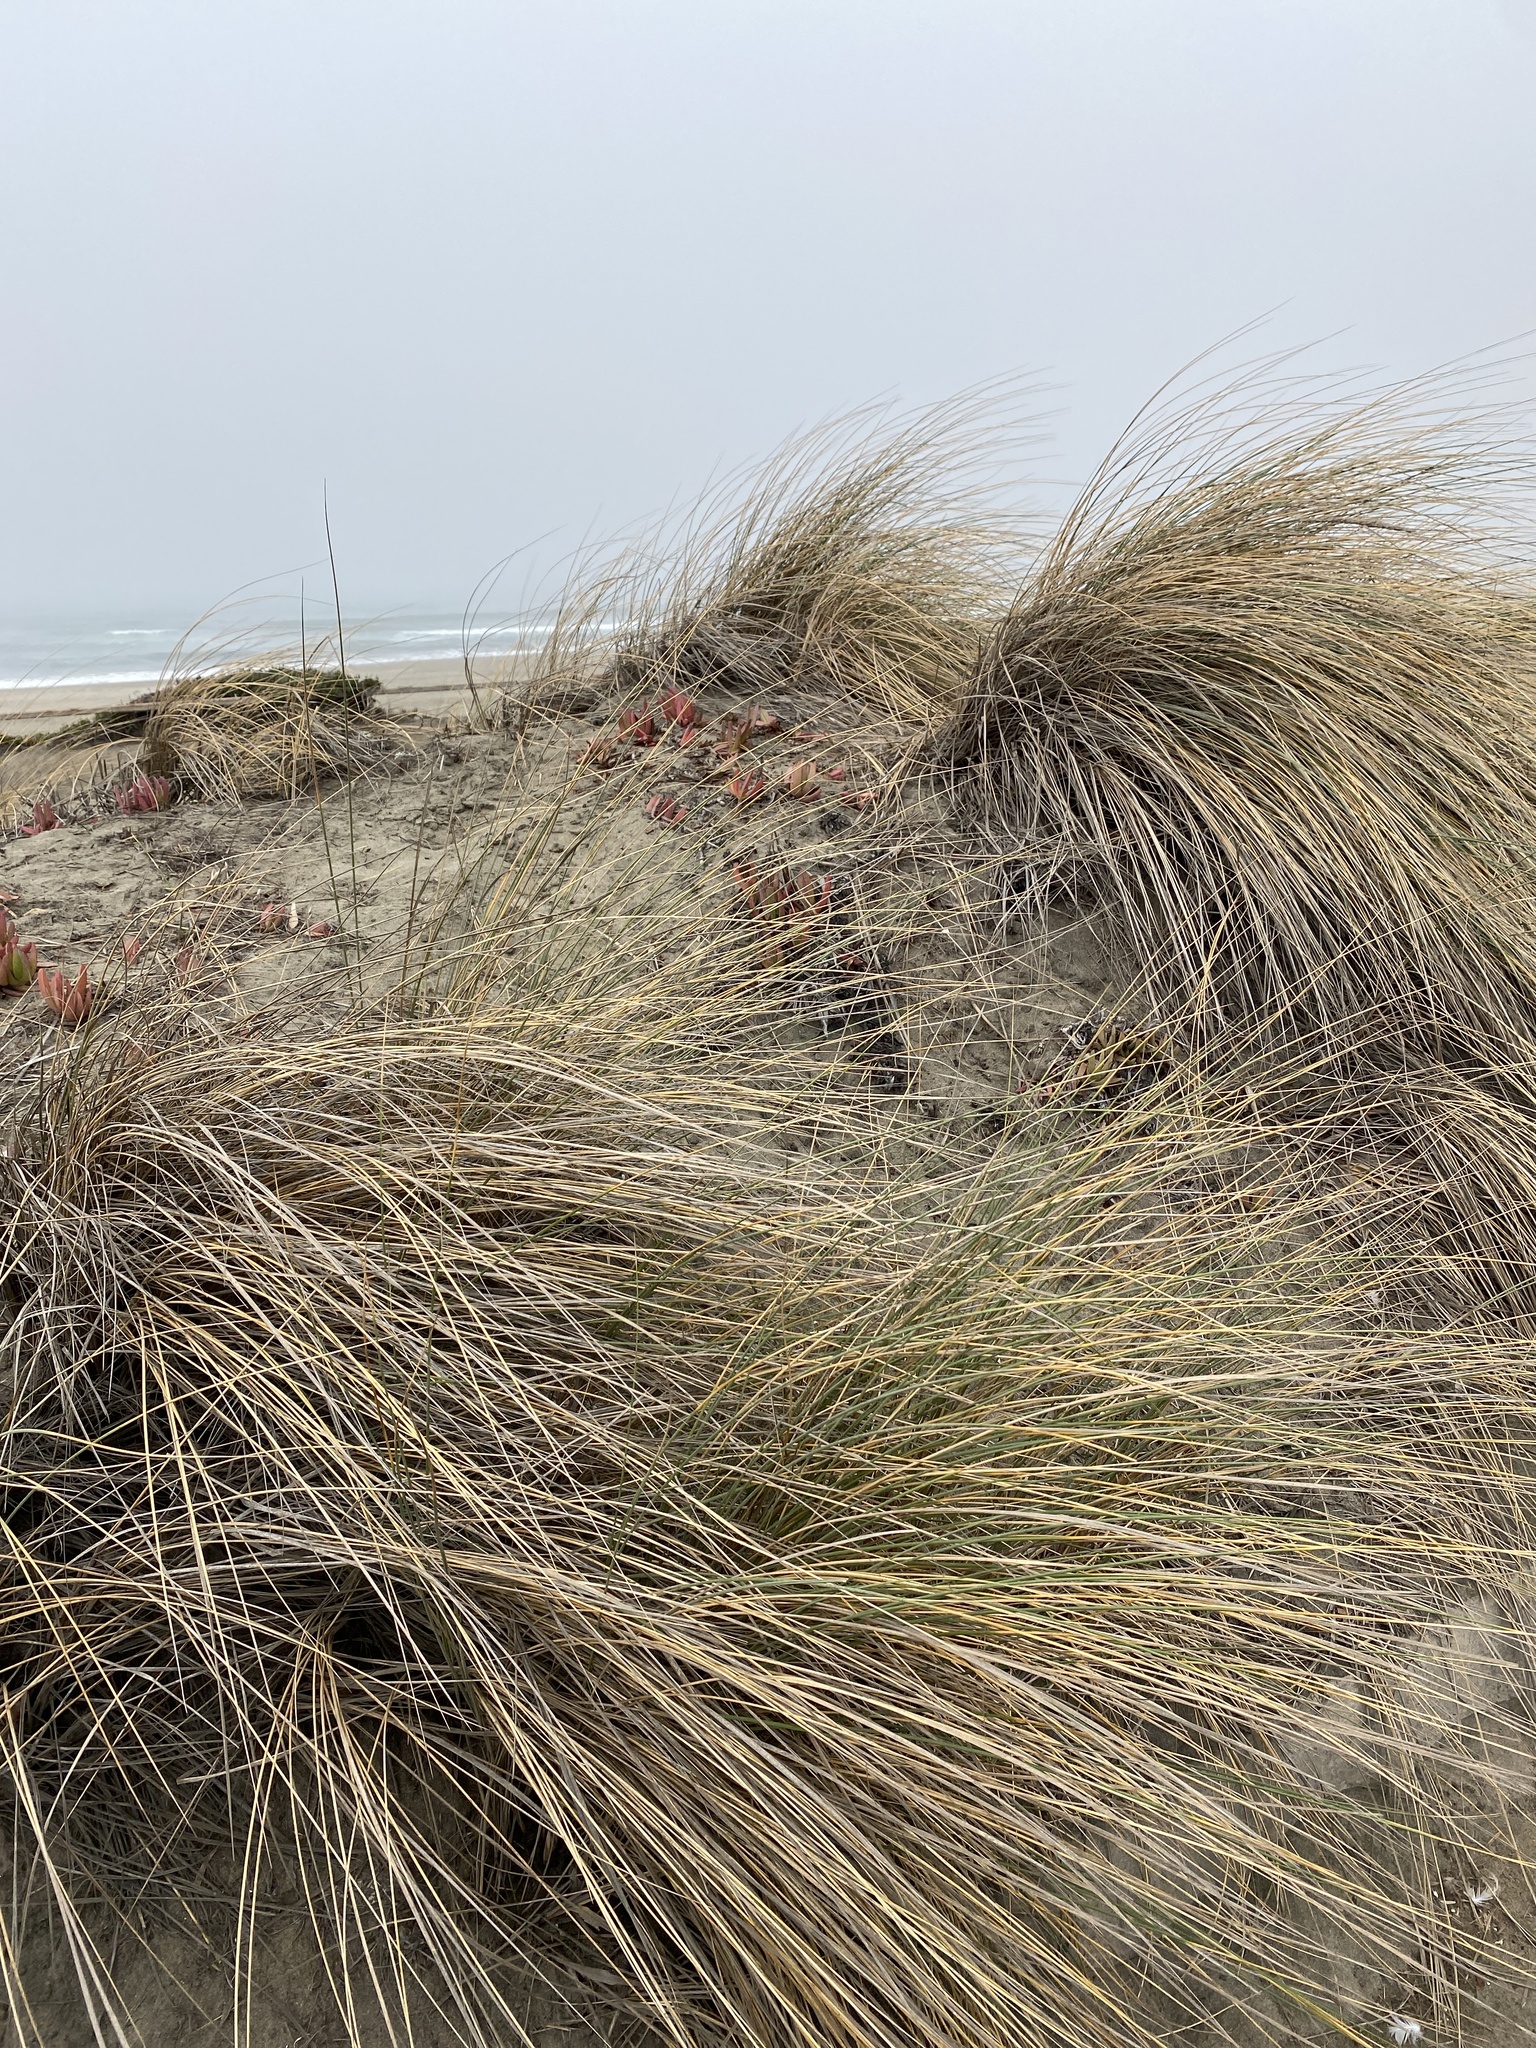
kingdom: Plantae
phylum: Tracheophyta
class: Liliopsida
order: Poales
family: Poaceae
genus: Calamagrostis
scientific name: Calamagrostis arenaria
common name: European beachgrass
